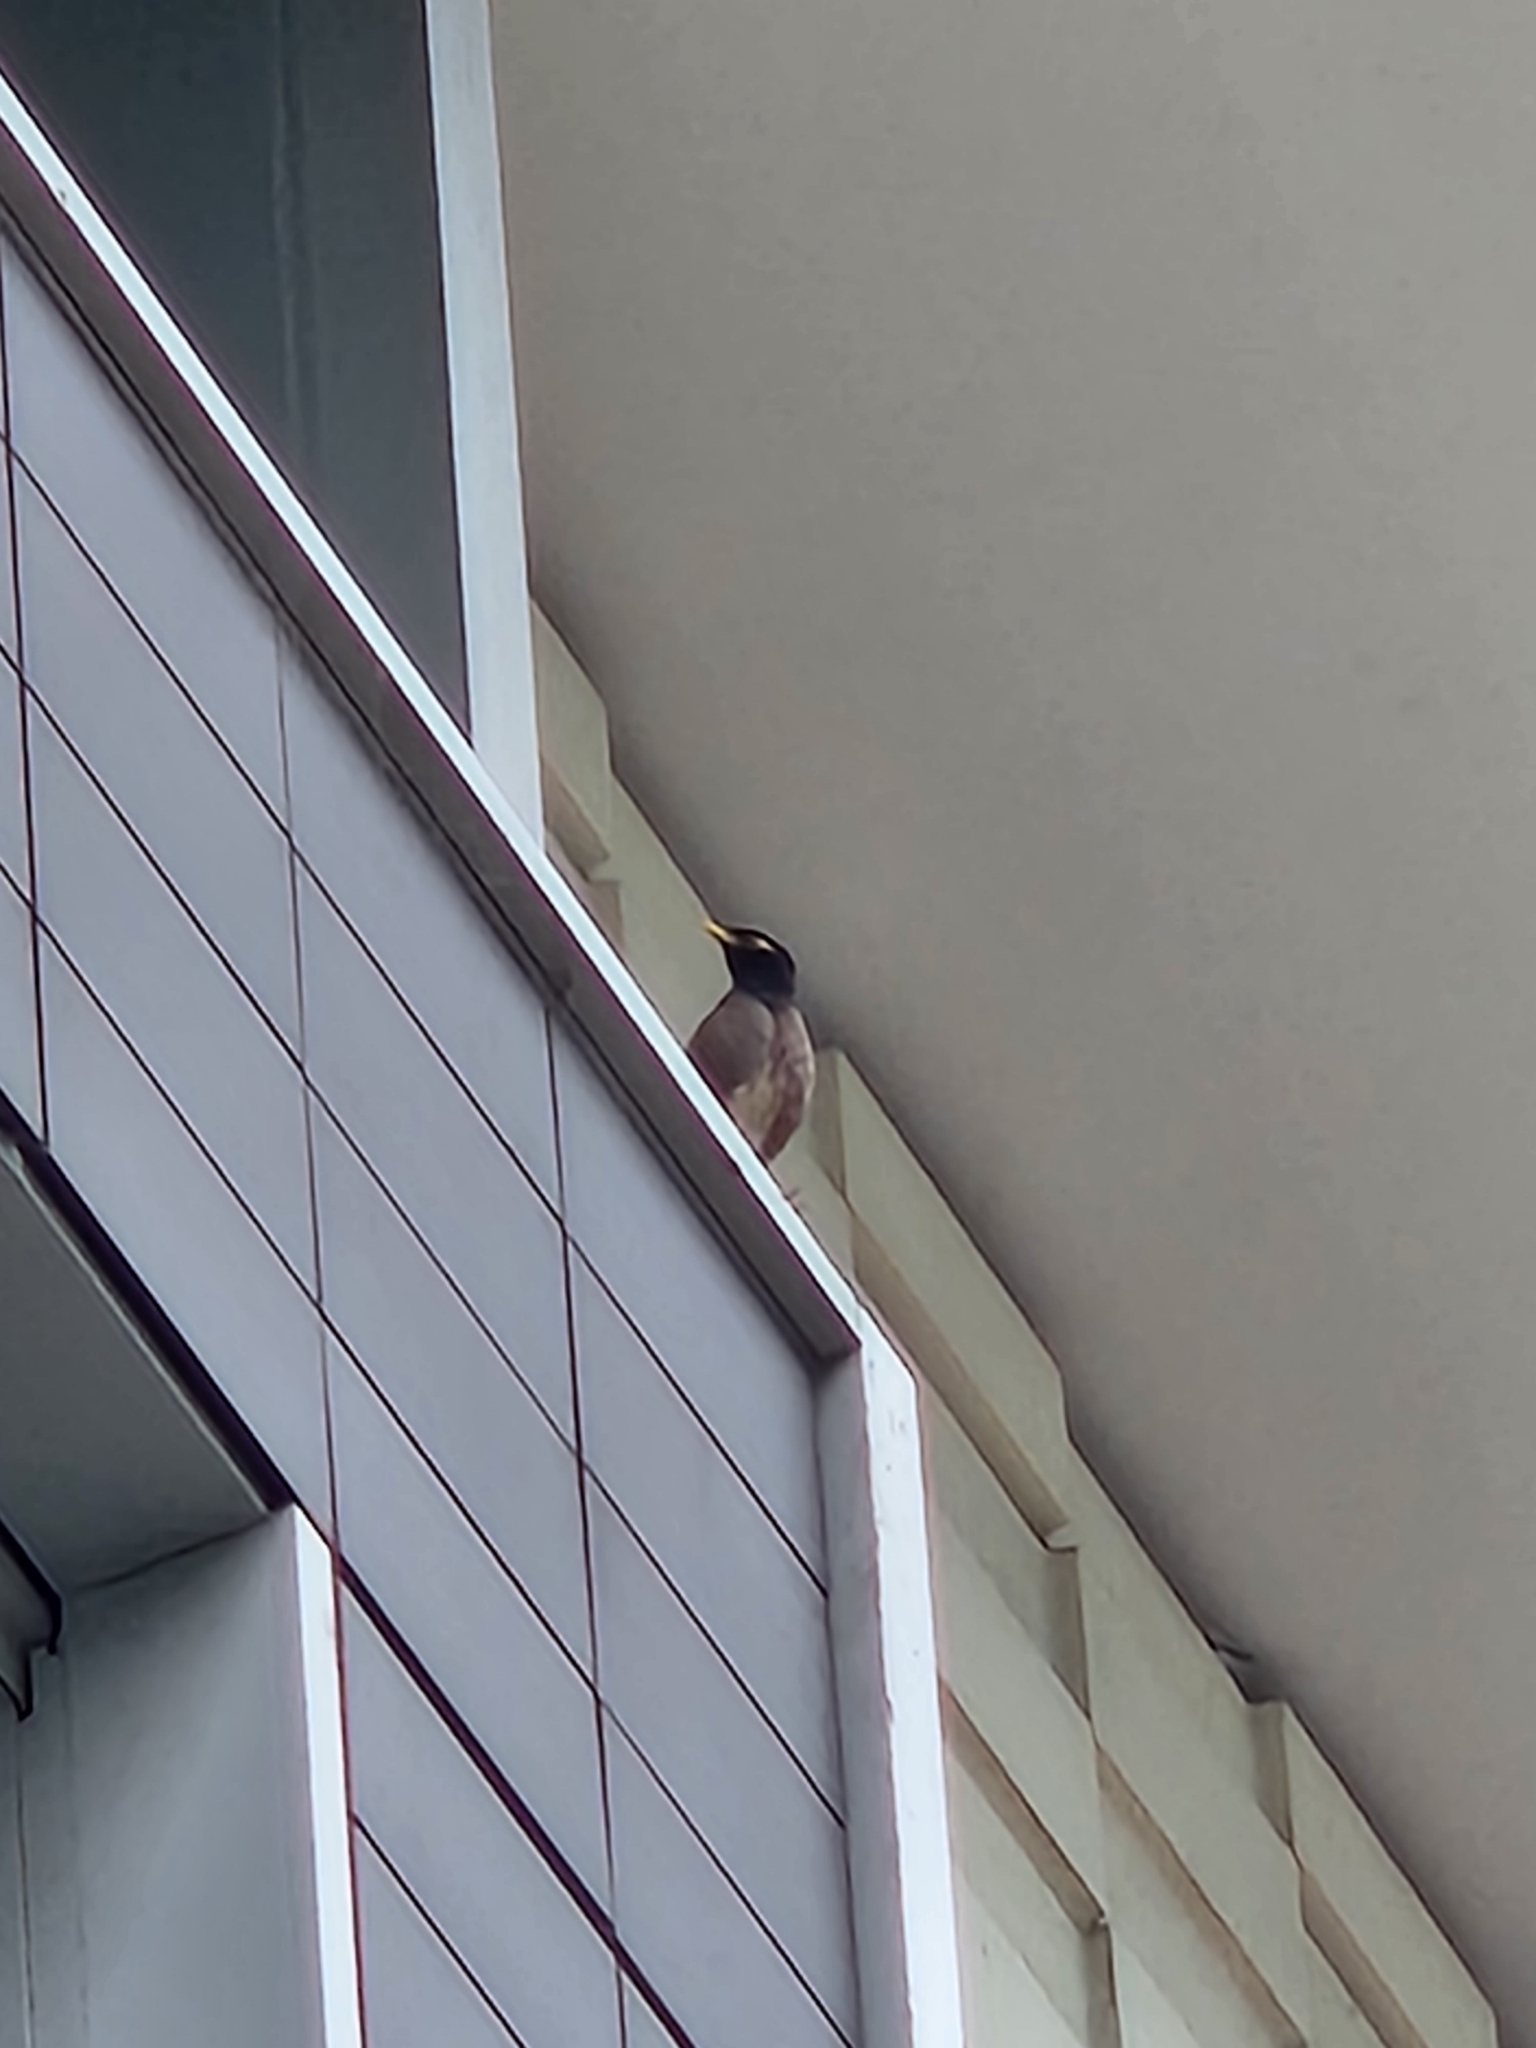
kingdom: Animalia
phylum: Chordata
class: Aves
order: Passeriformes
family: Sturnidae
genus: Acridotheres
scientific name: Acridotheres tristis
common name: Common myna
